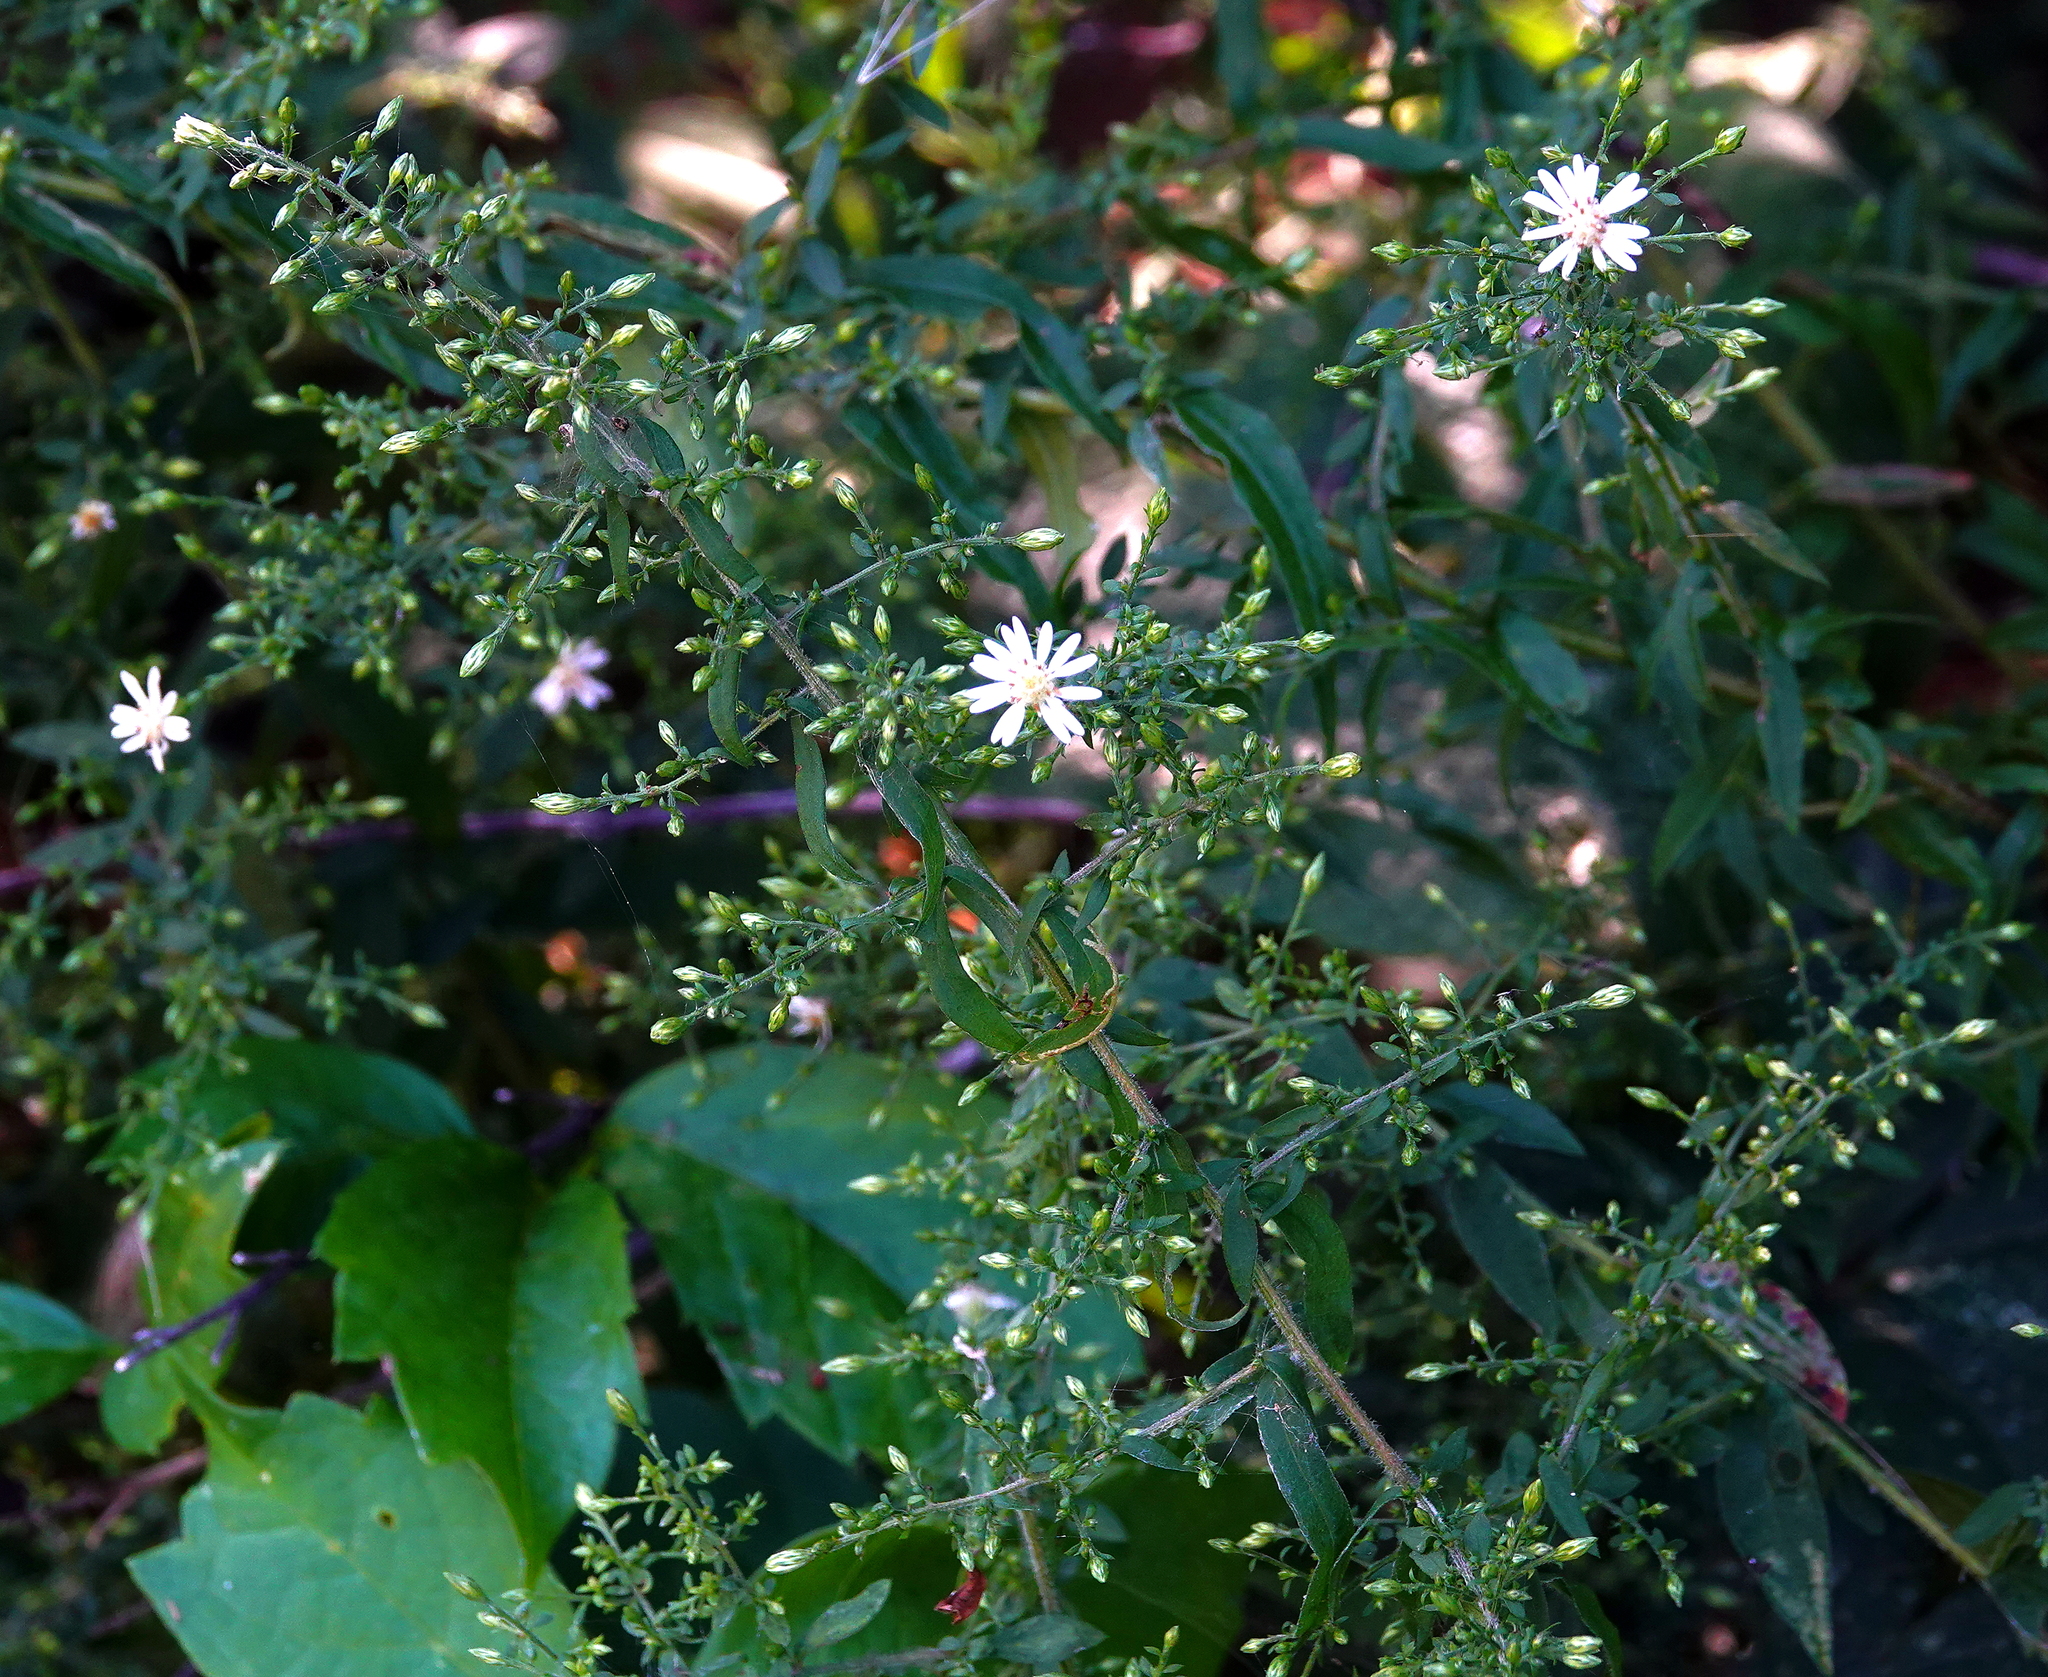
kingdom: Plantae
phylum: Tracheophyta
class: Magnoliopsida
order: Asterales
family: Asteraceae
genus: Symphyotrichum
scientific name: Symphyotrichum lateriflorum
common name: Calico aster
